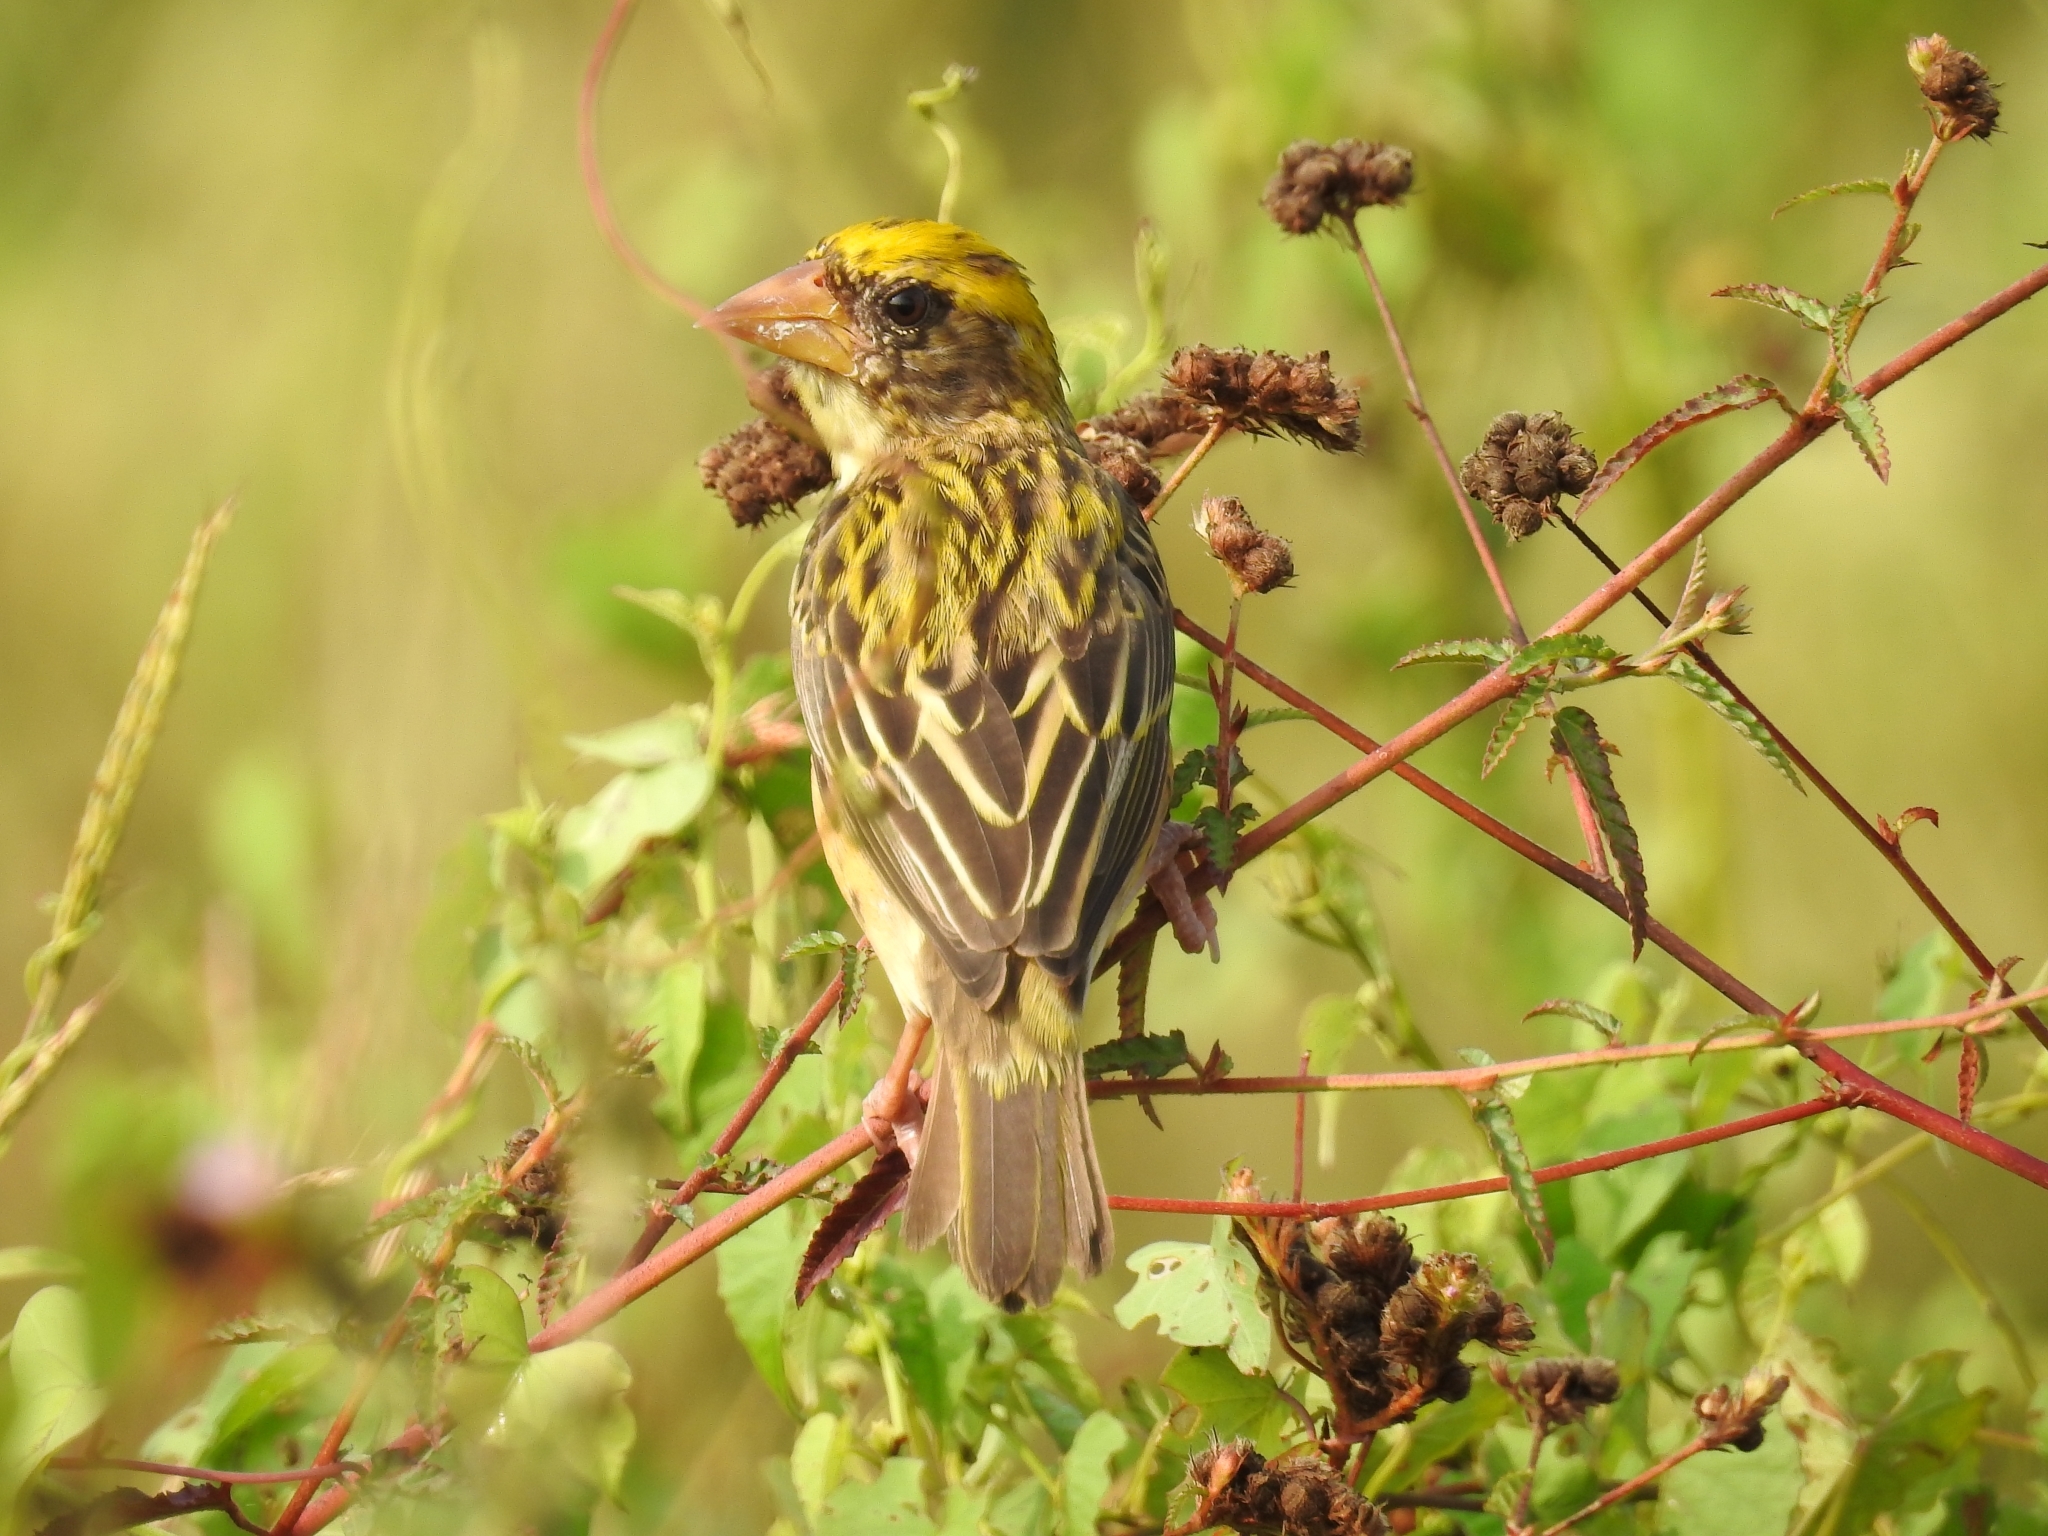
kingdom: Animalia
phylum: Chordata
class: Aves
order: Passeriformes
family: Ploceidae
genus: Ploceus
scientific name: Ploceus philippinus
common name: Baya weaver
